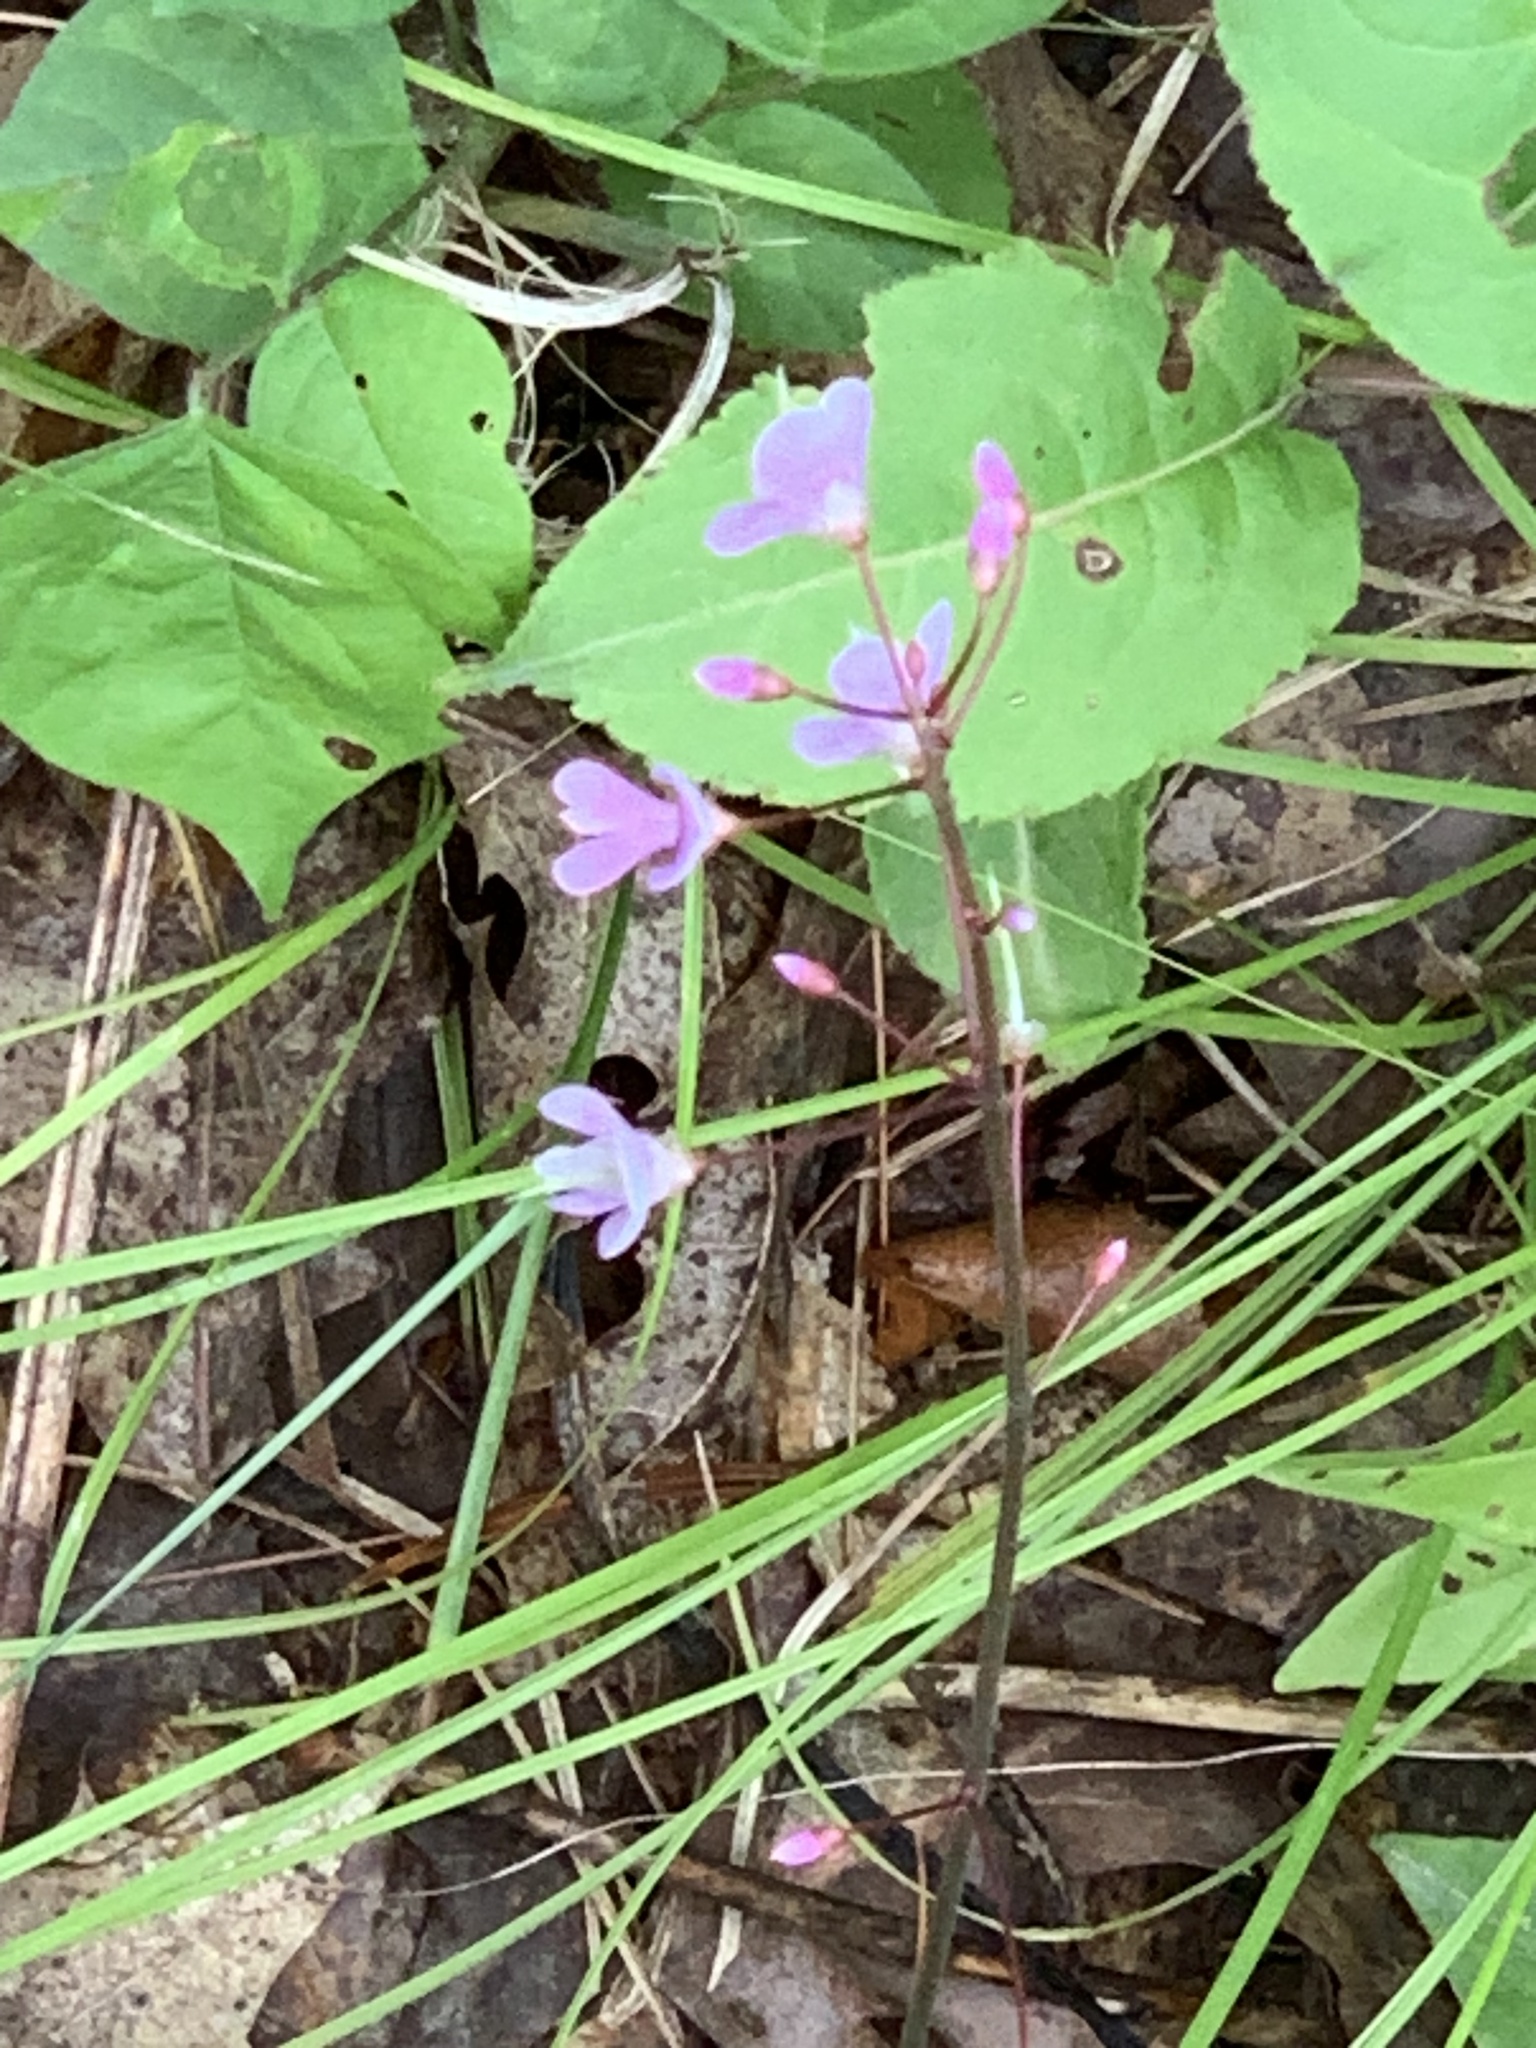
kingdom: Plantae
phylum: Tracheophyta
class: Magnoliopsida
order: Fabales
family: Fabaceae
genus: Hylodesmum
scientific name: Hylodesmum nudiflorum
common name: Bare-stemmed tick-trefoil
